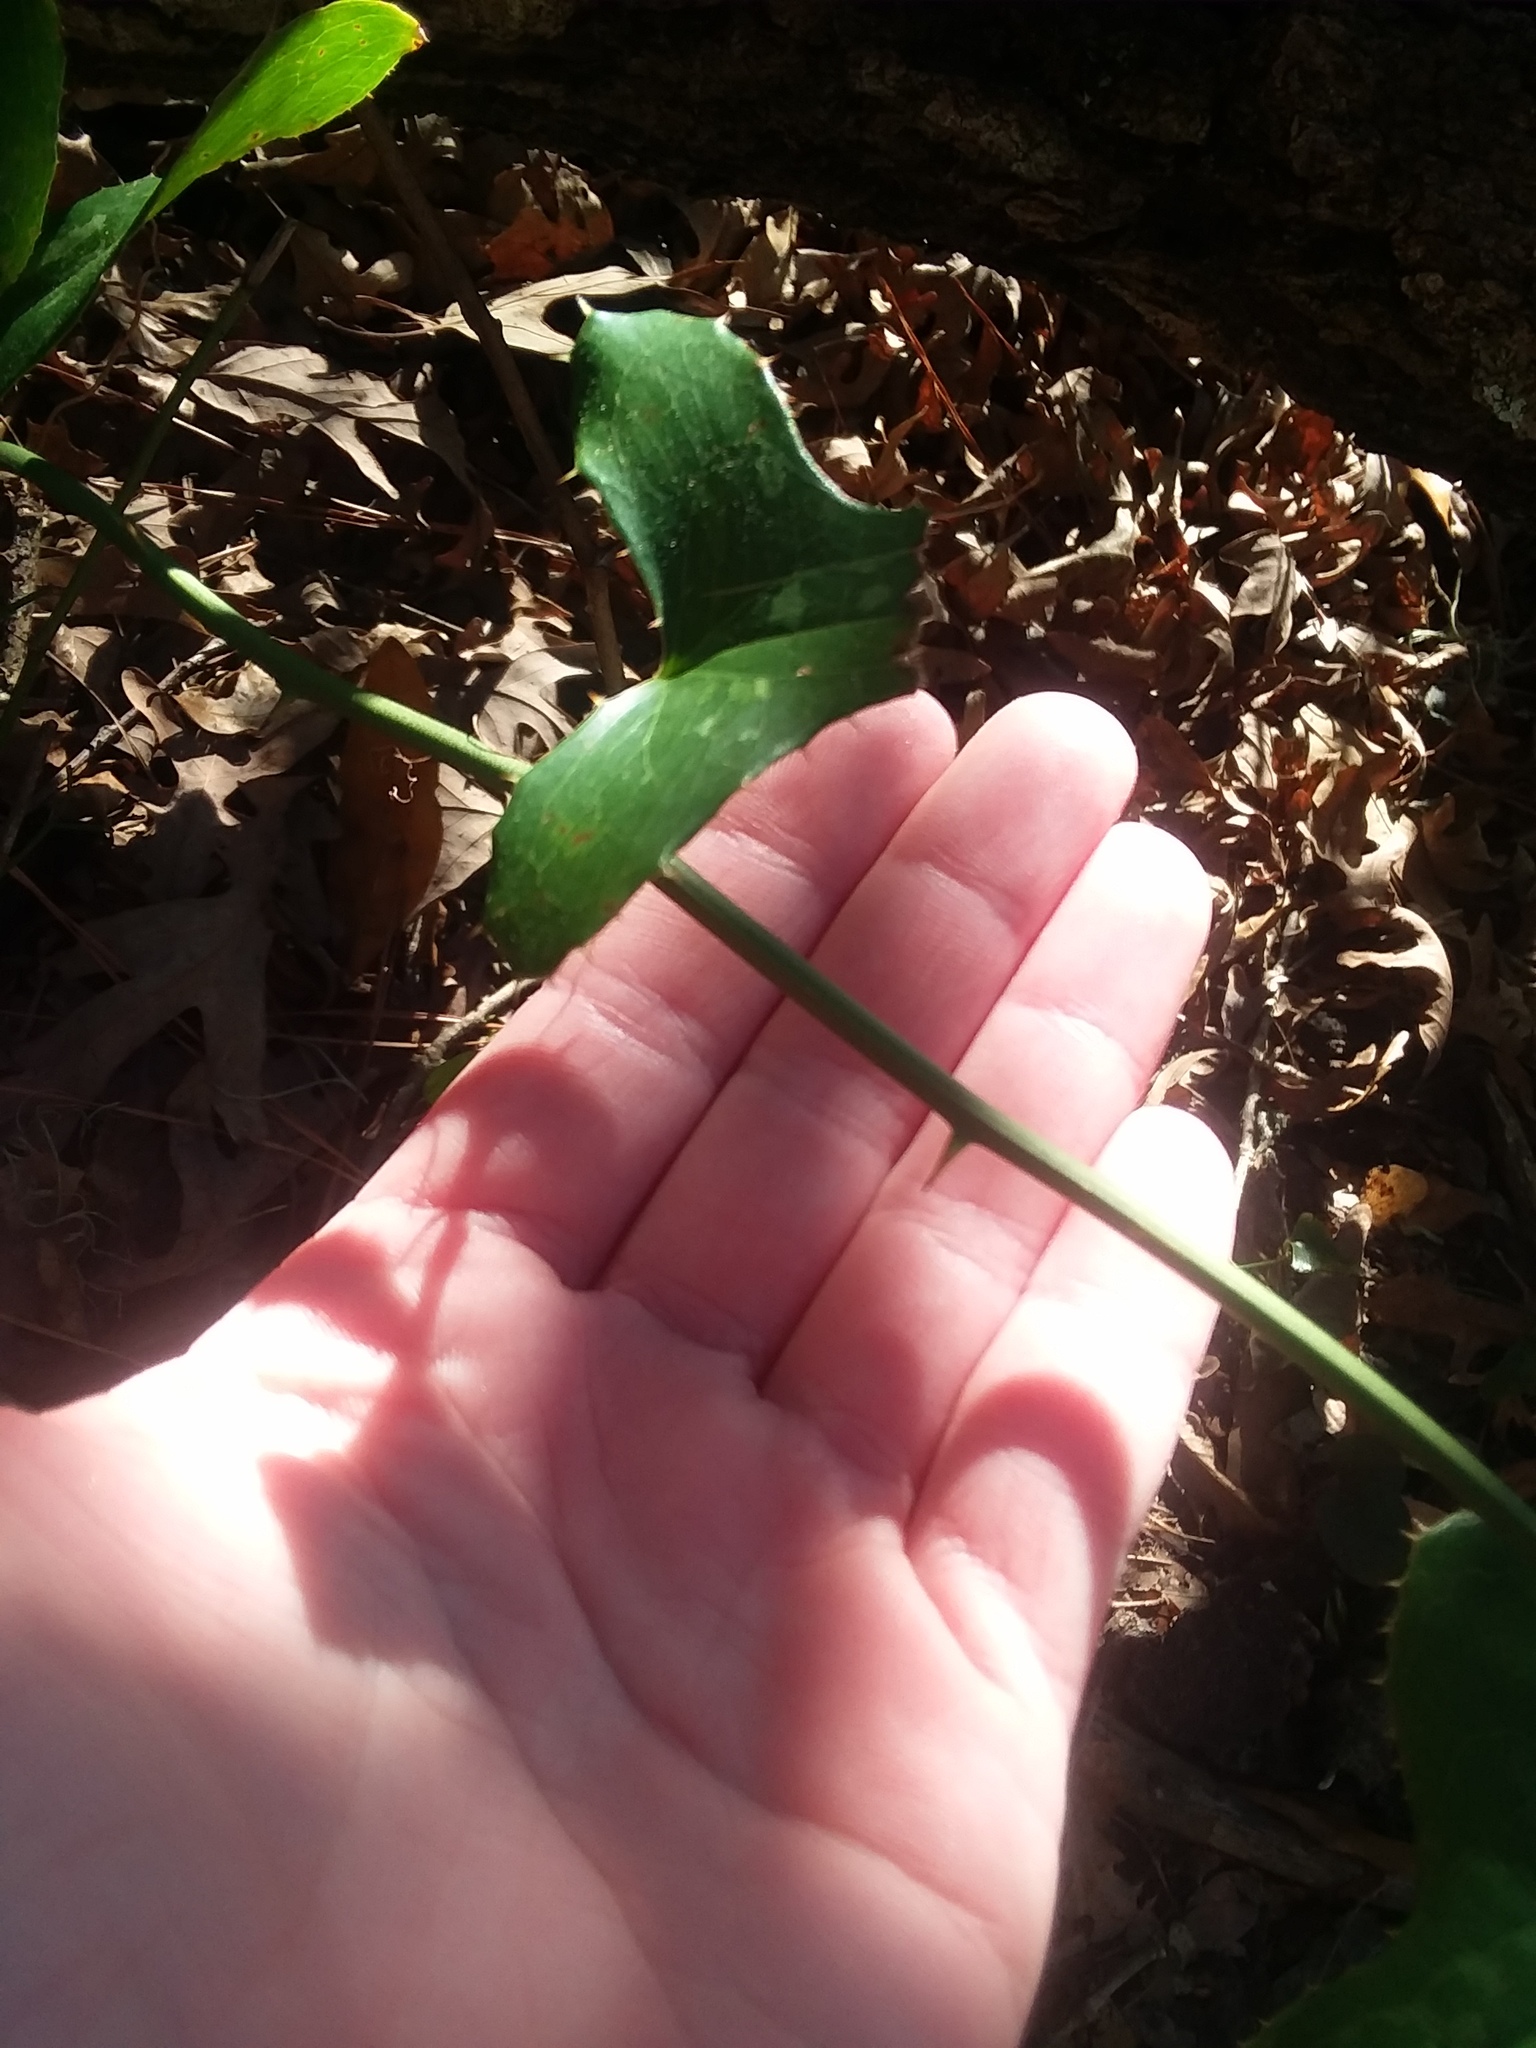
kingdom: Plantae
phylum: Tracheophyta
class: Liliopsida
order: Liliales
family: Smilacaceae
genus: Smilax
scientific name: Smilax bona-nox
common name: Catbrier
